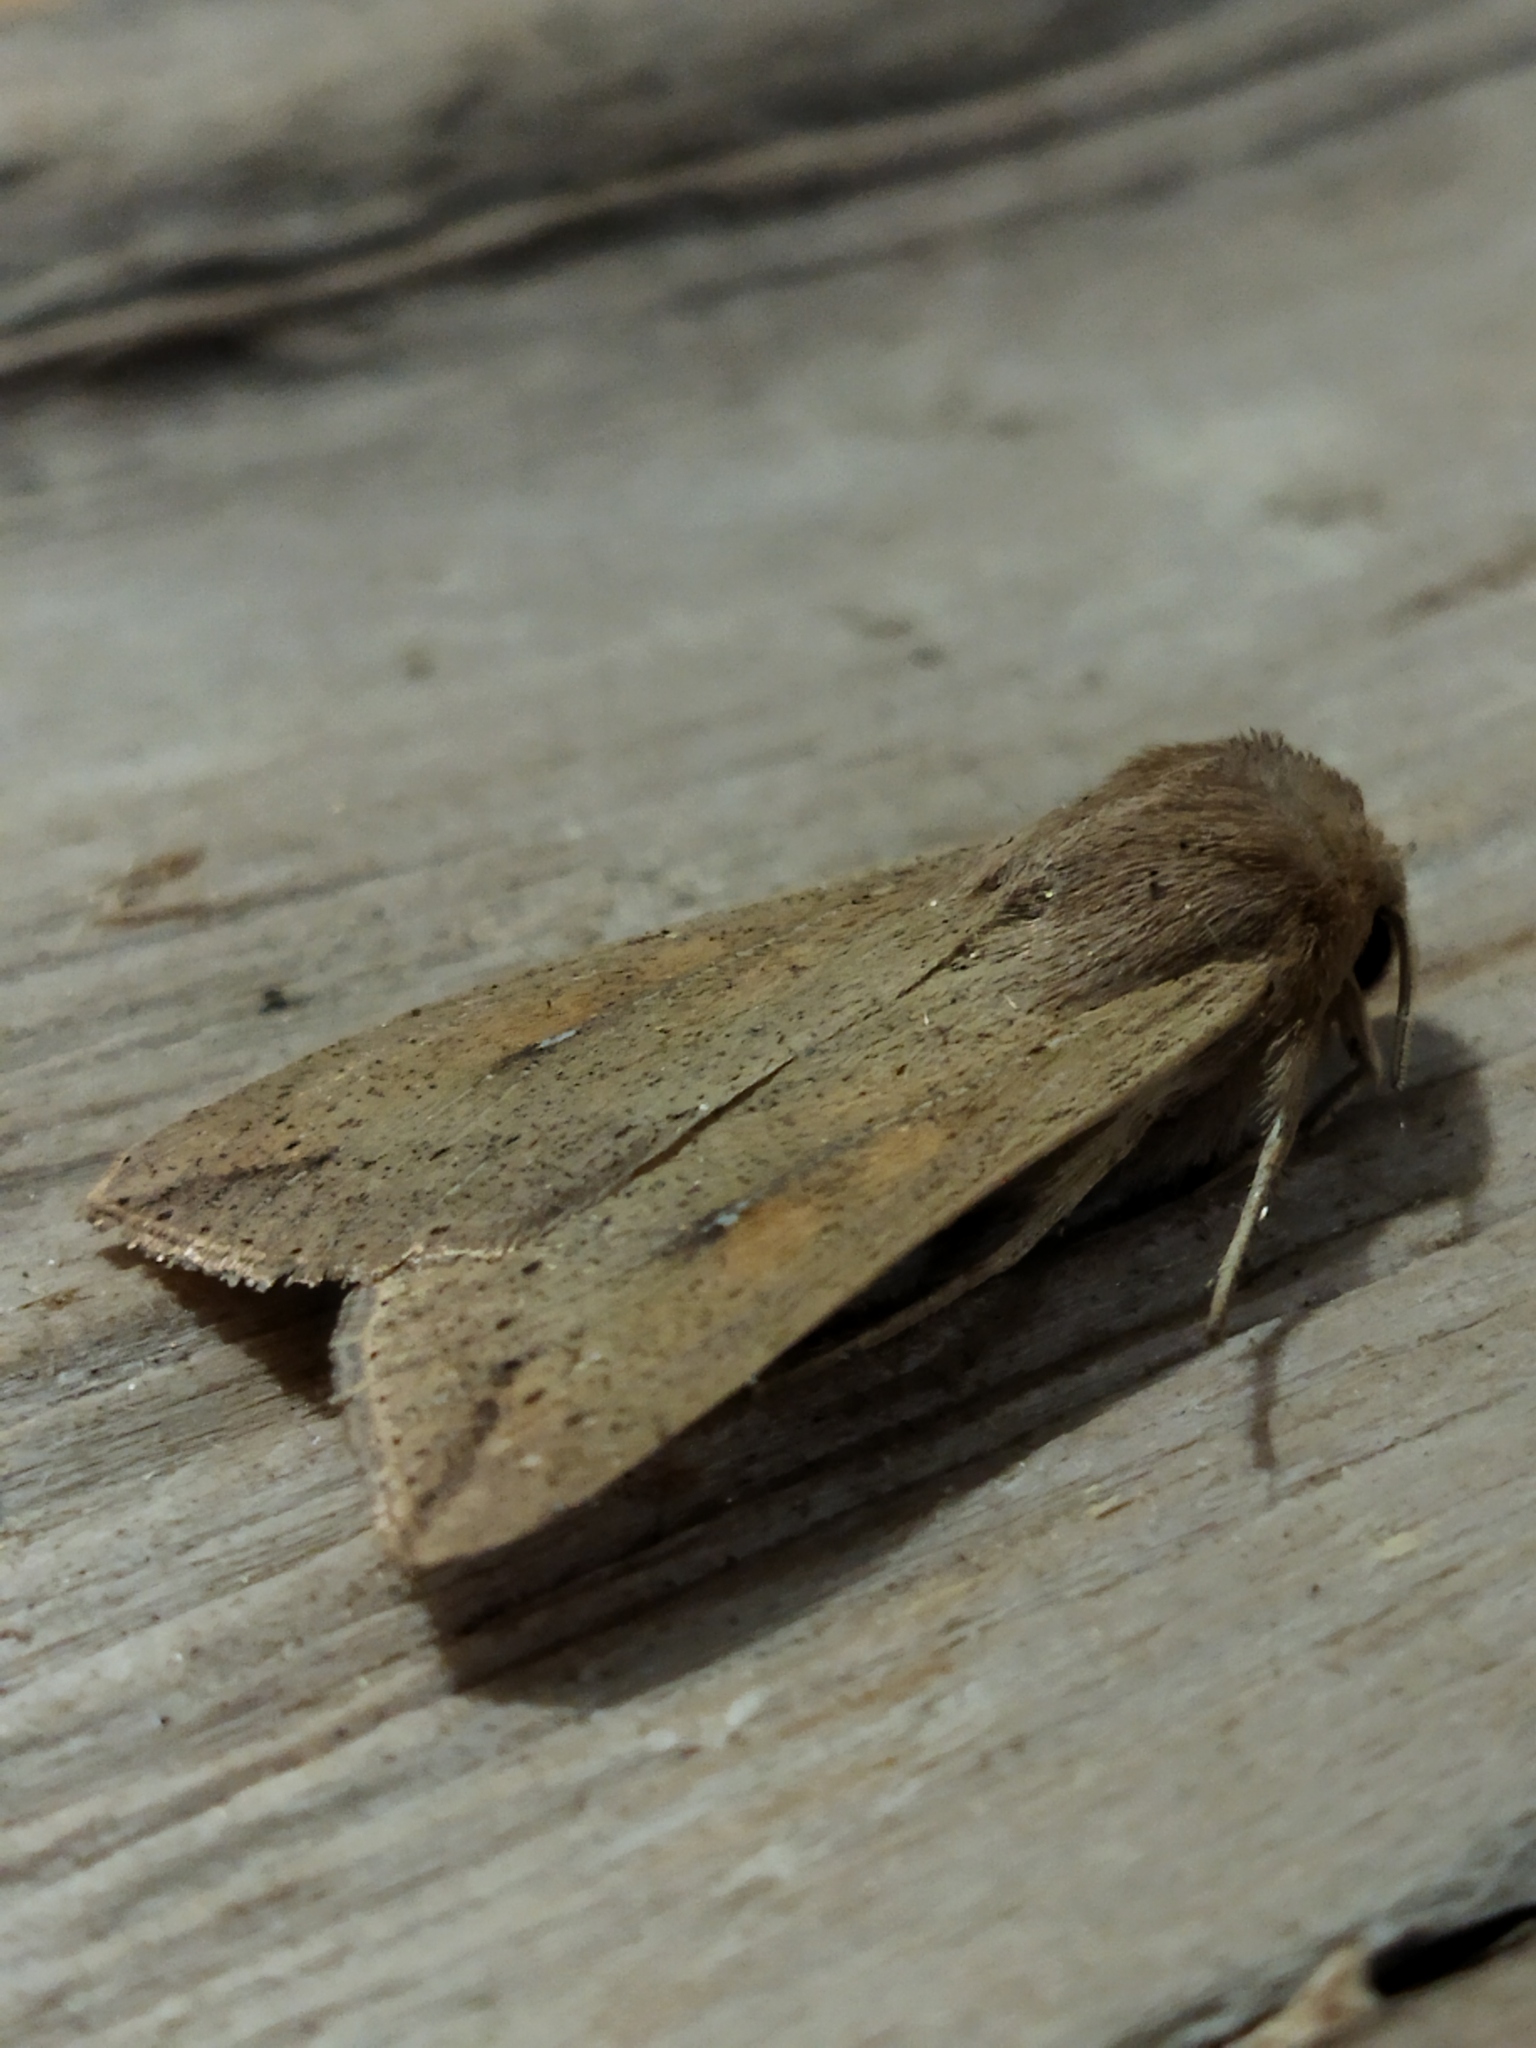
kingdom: Animalia
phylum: Arthropoda
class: Insecta
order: Lepidoptera
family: Noctuidae
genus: Mythimna
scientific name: Mythimna unipuncta
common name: White-speck
